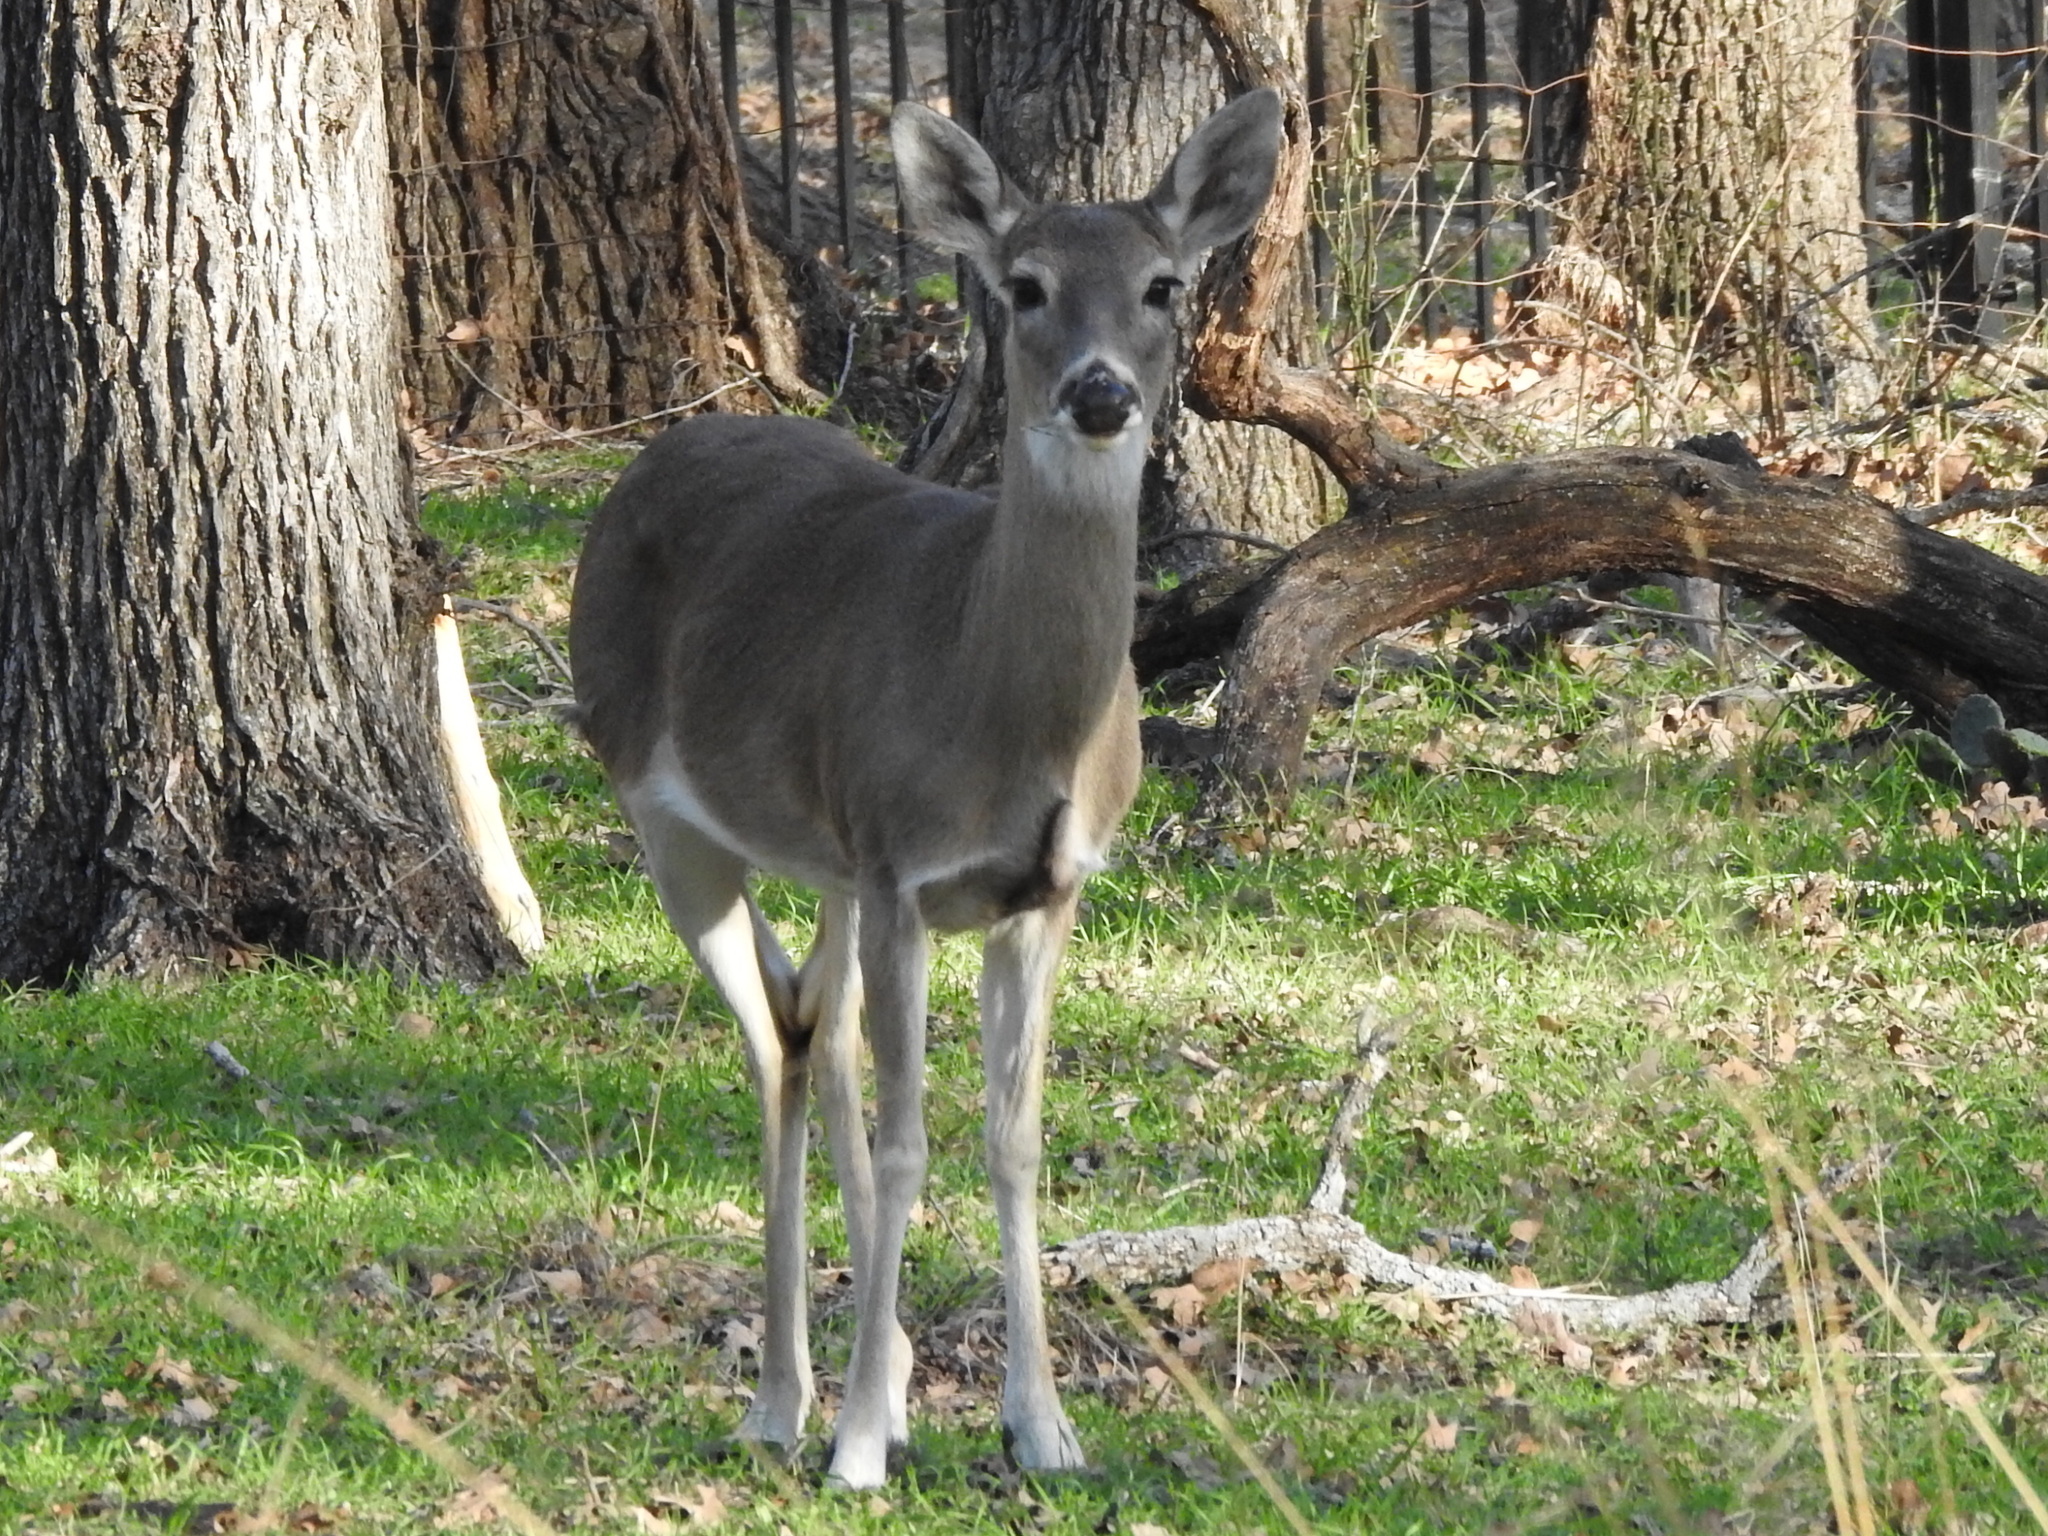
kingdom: Animalia
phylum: Chordata
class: Mammalia
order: Artiodactyla
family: Cervidae
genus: Odocoileus
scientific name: Odocoileus virginianus
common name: White-tailed deer
